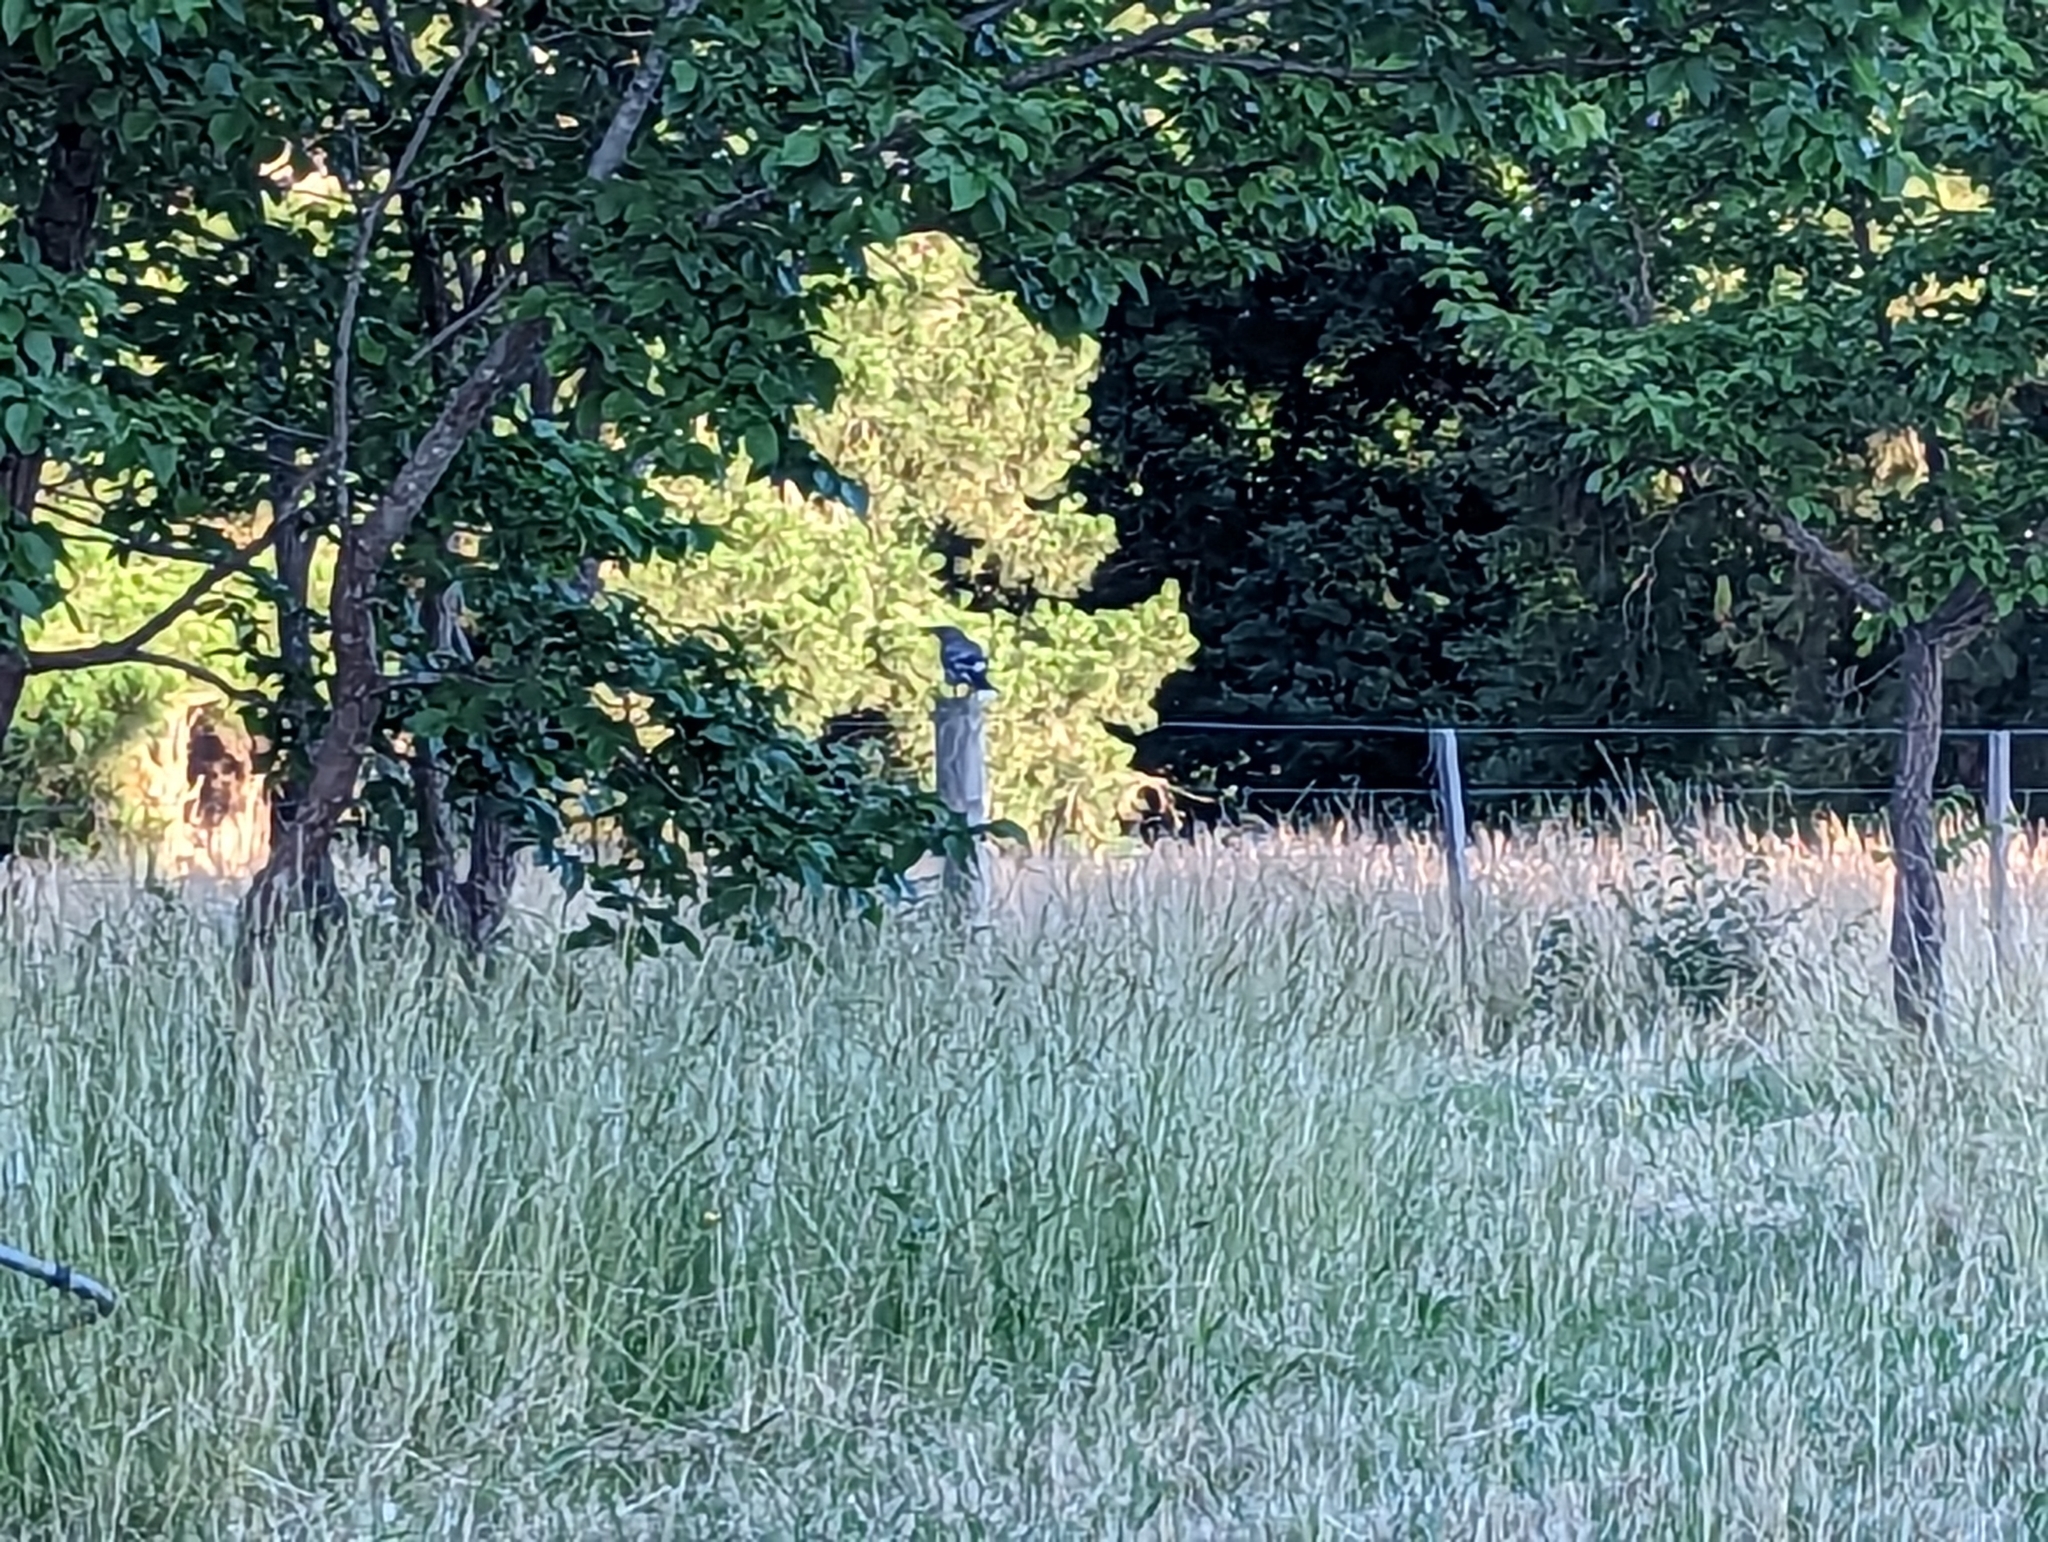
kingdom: Animalia
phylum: Chordata
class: Aves
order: Passeriformes
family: Cracticidae
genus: Strepera
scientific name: Strepera versicolor
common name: Grey currawong
